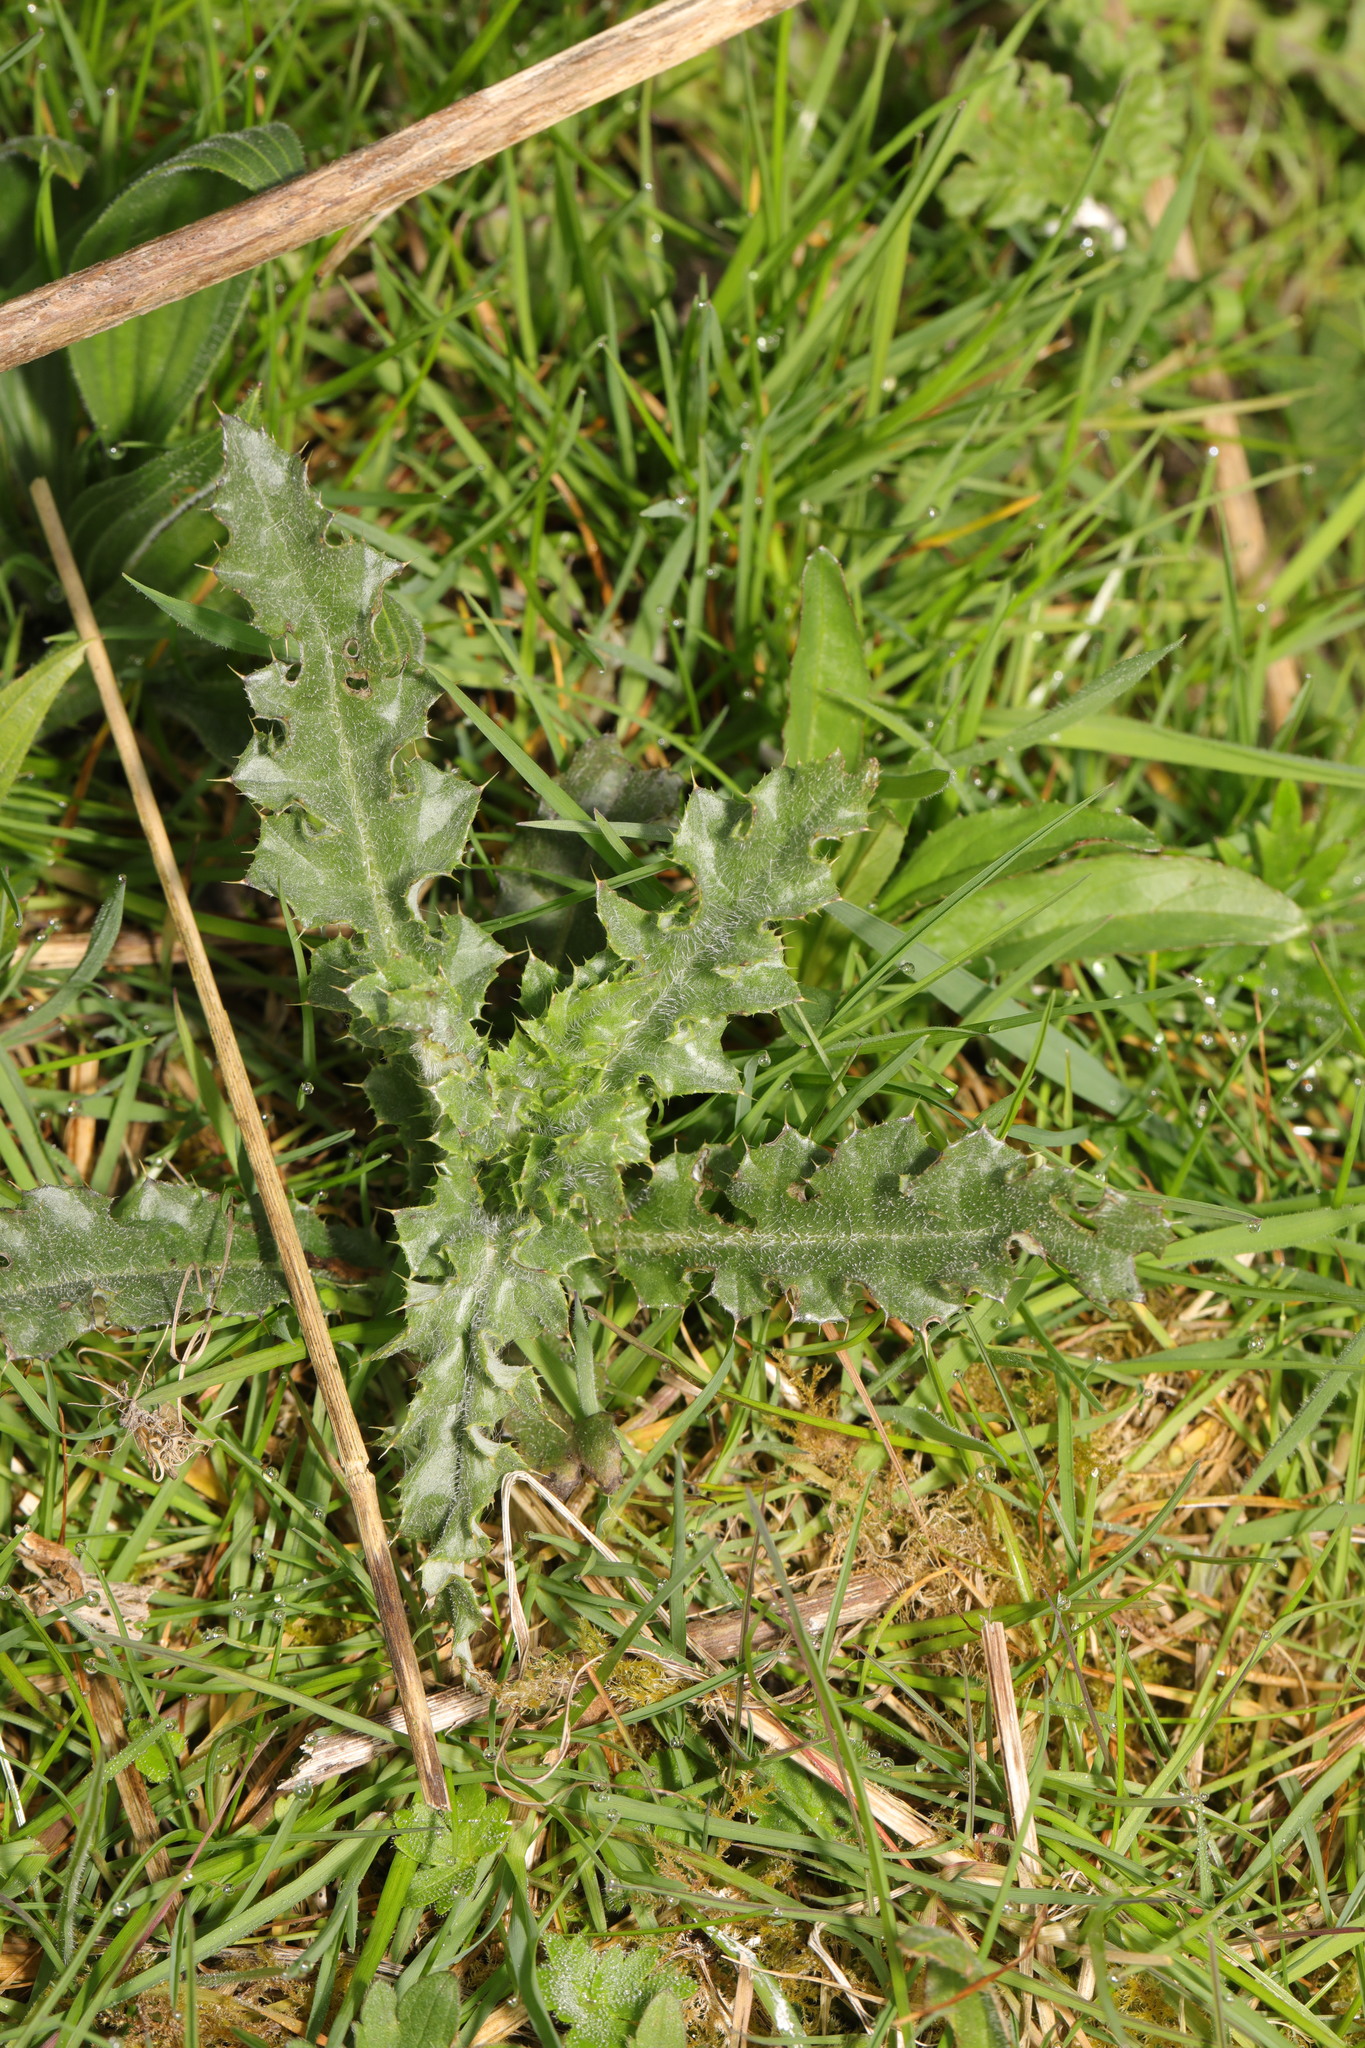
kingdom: Plantae
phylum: Tracheophyta
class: Magnoliopsida
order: Asterales
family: Asteraceae
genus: Cirsium
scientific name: Cirsium arvense
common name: Creeping thistle
